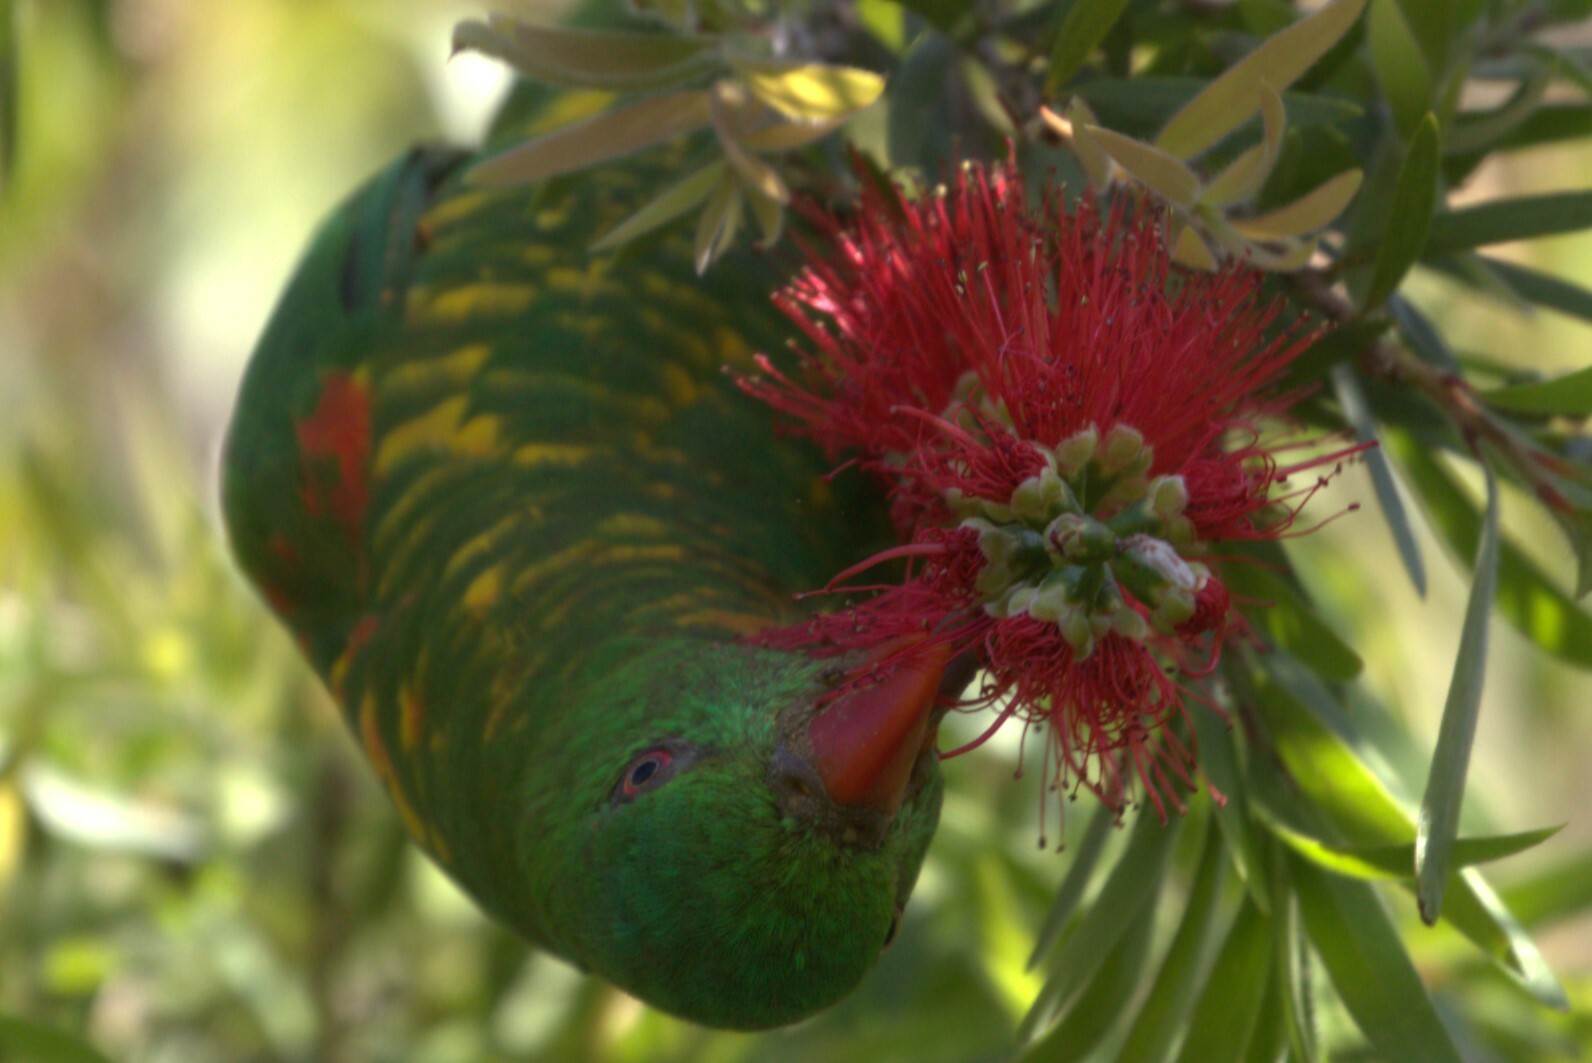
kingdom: Animalia
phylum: Chordata
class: Aves
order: Psittaciformes
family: Psittacidae
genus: Trichoglossus
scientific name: Trichoglossus chlorolepidotus
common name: Scaly-breasted lorikeet
